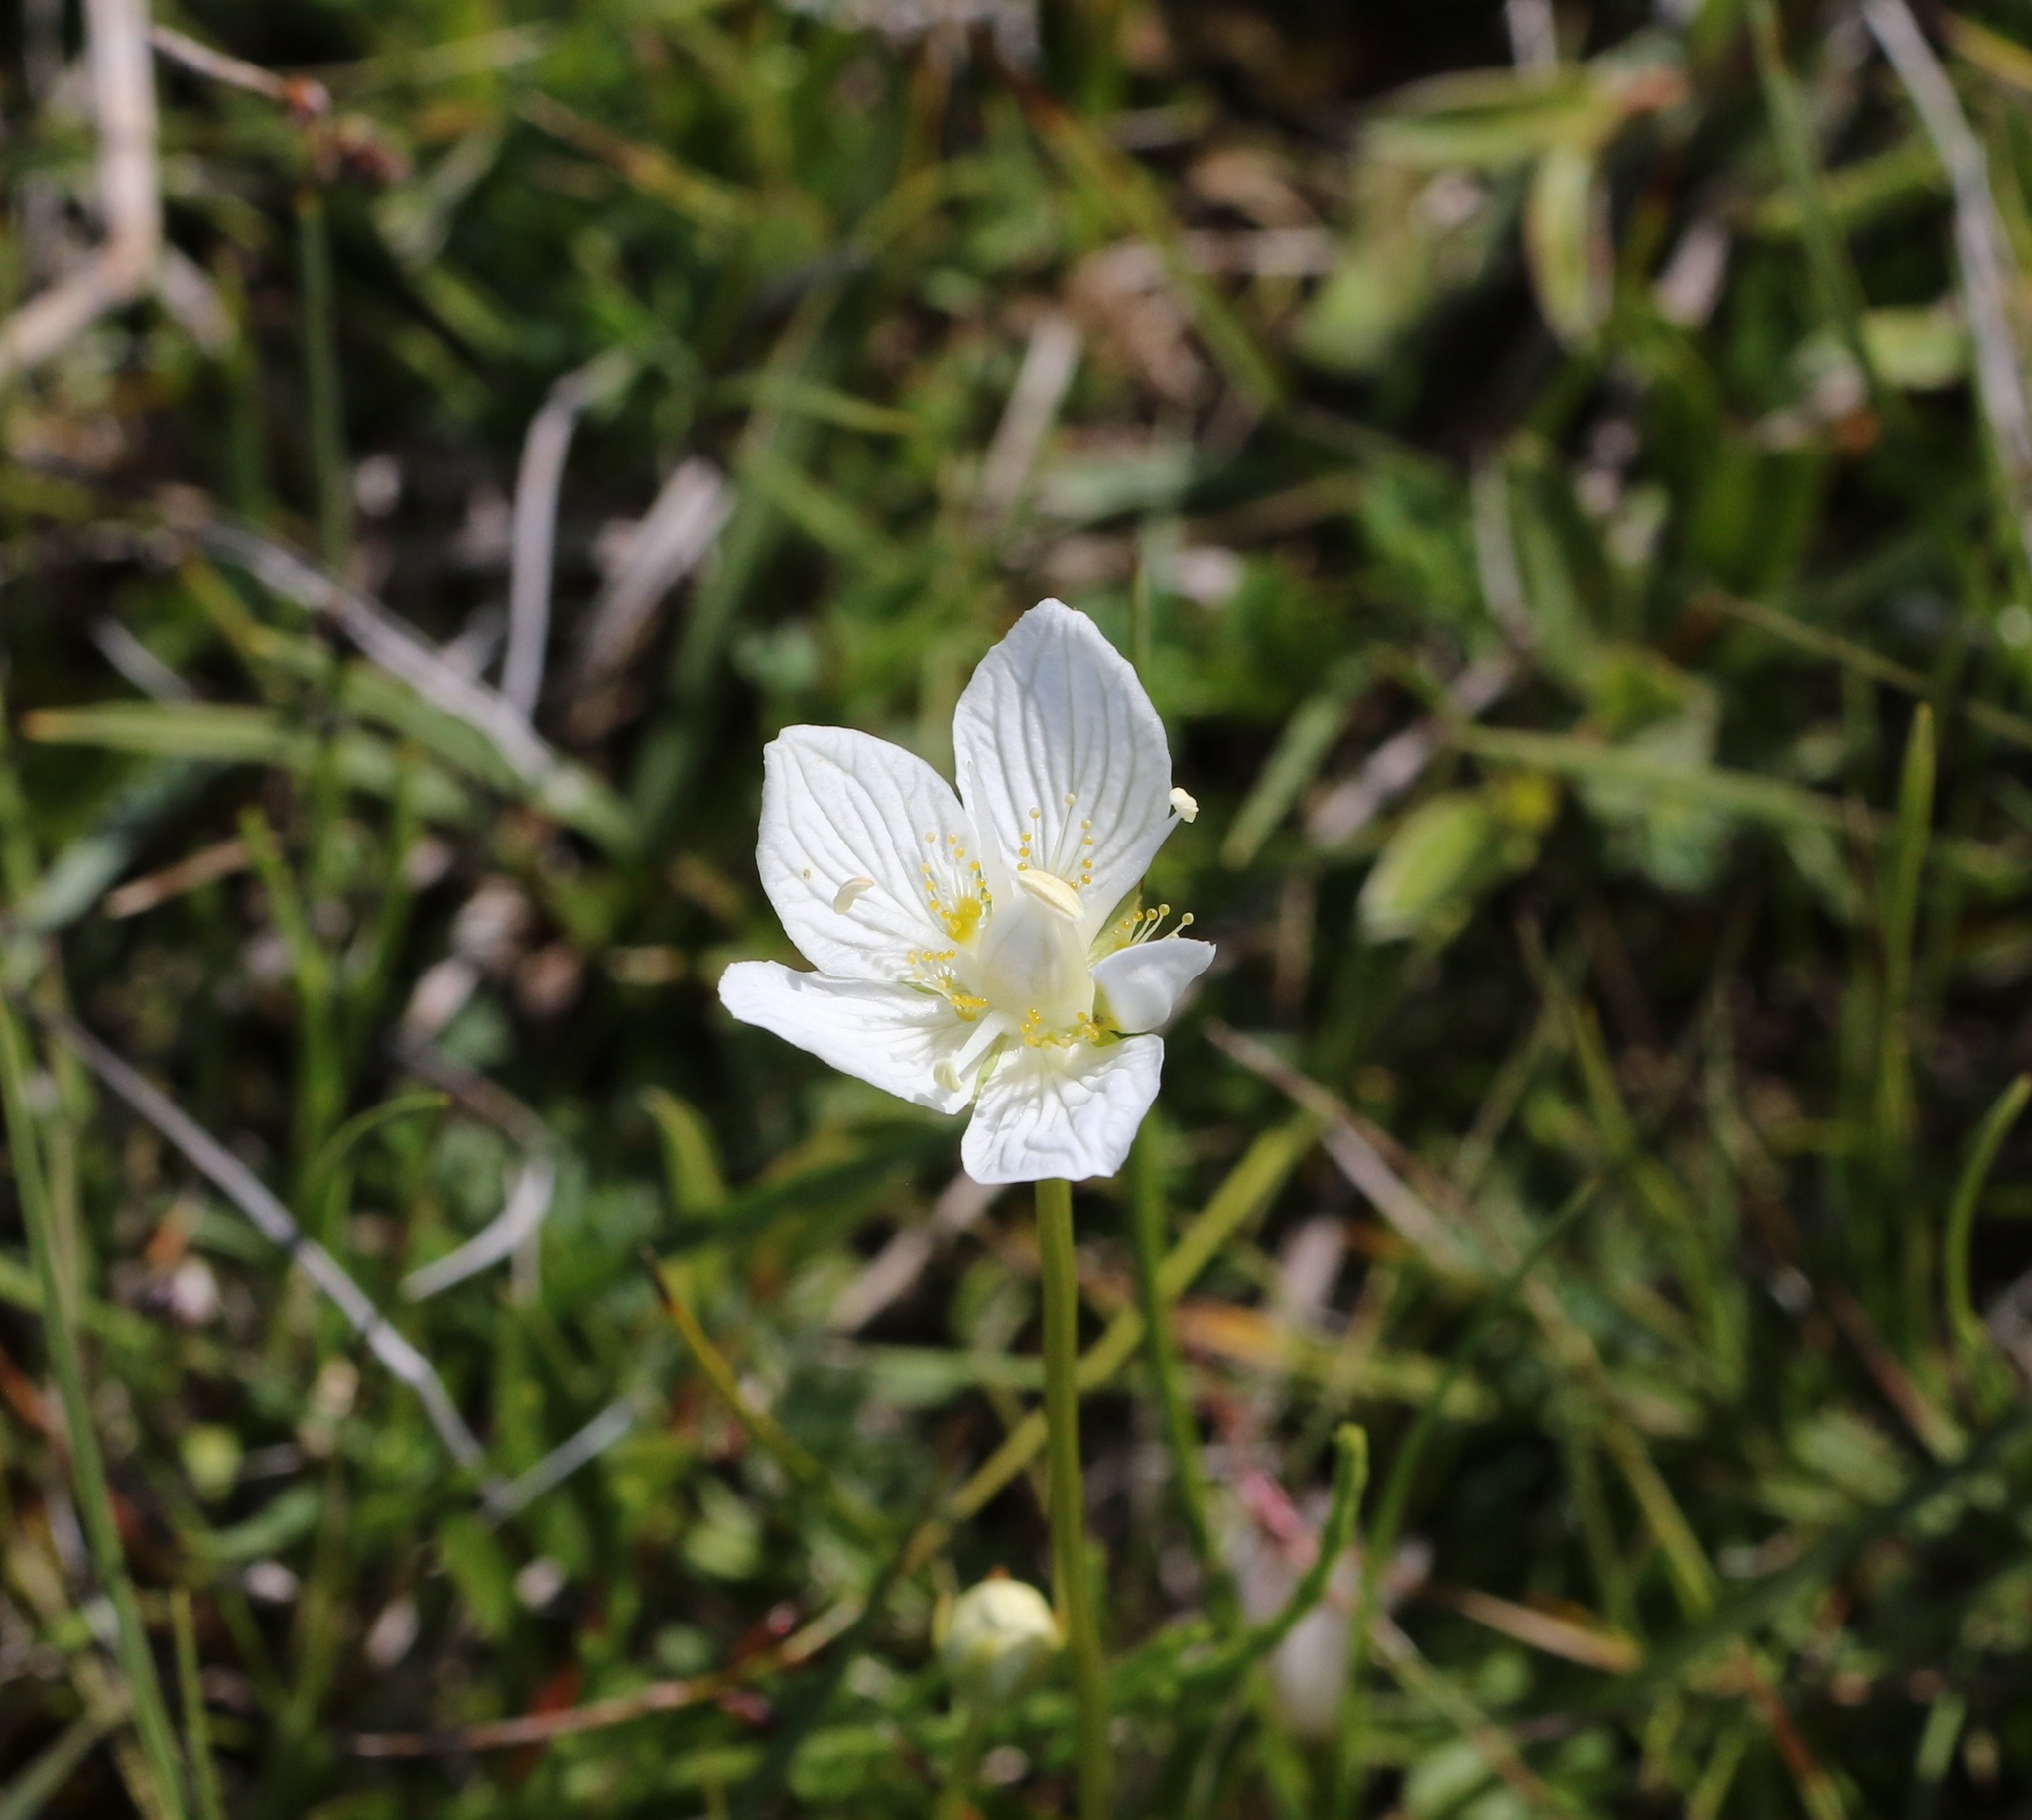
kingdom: Plantae
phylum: Tracheophyta
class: Magnoliopsida
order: Celastrales
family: Parnassiaceae
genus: Parnassia
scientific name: Parnassia palustris
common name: Grass-of-parnassus
